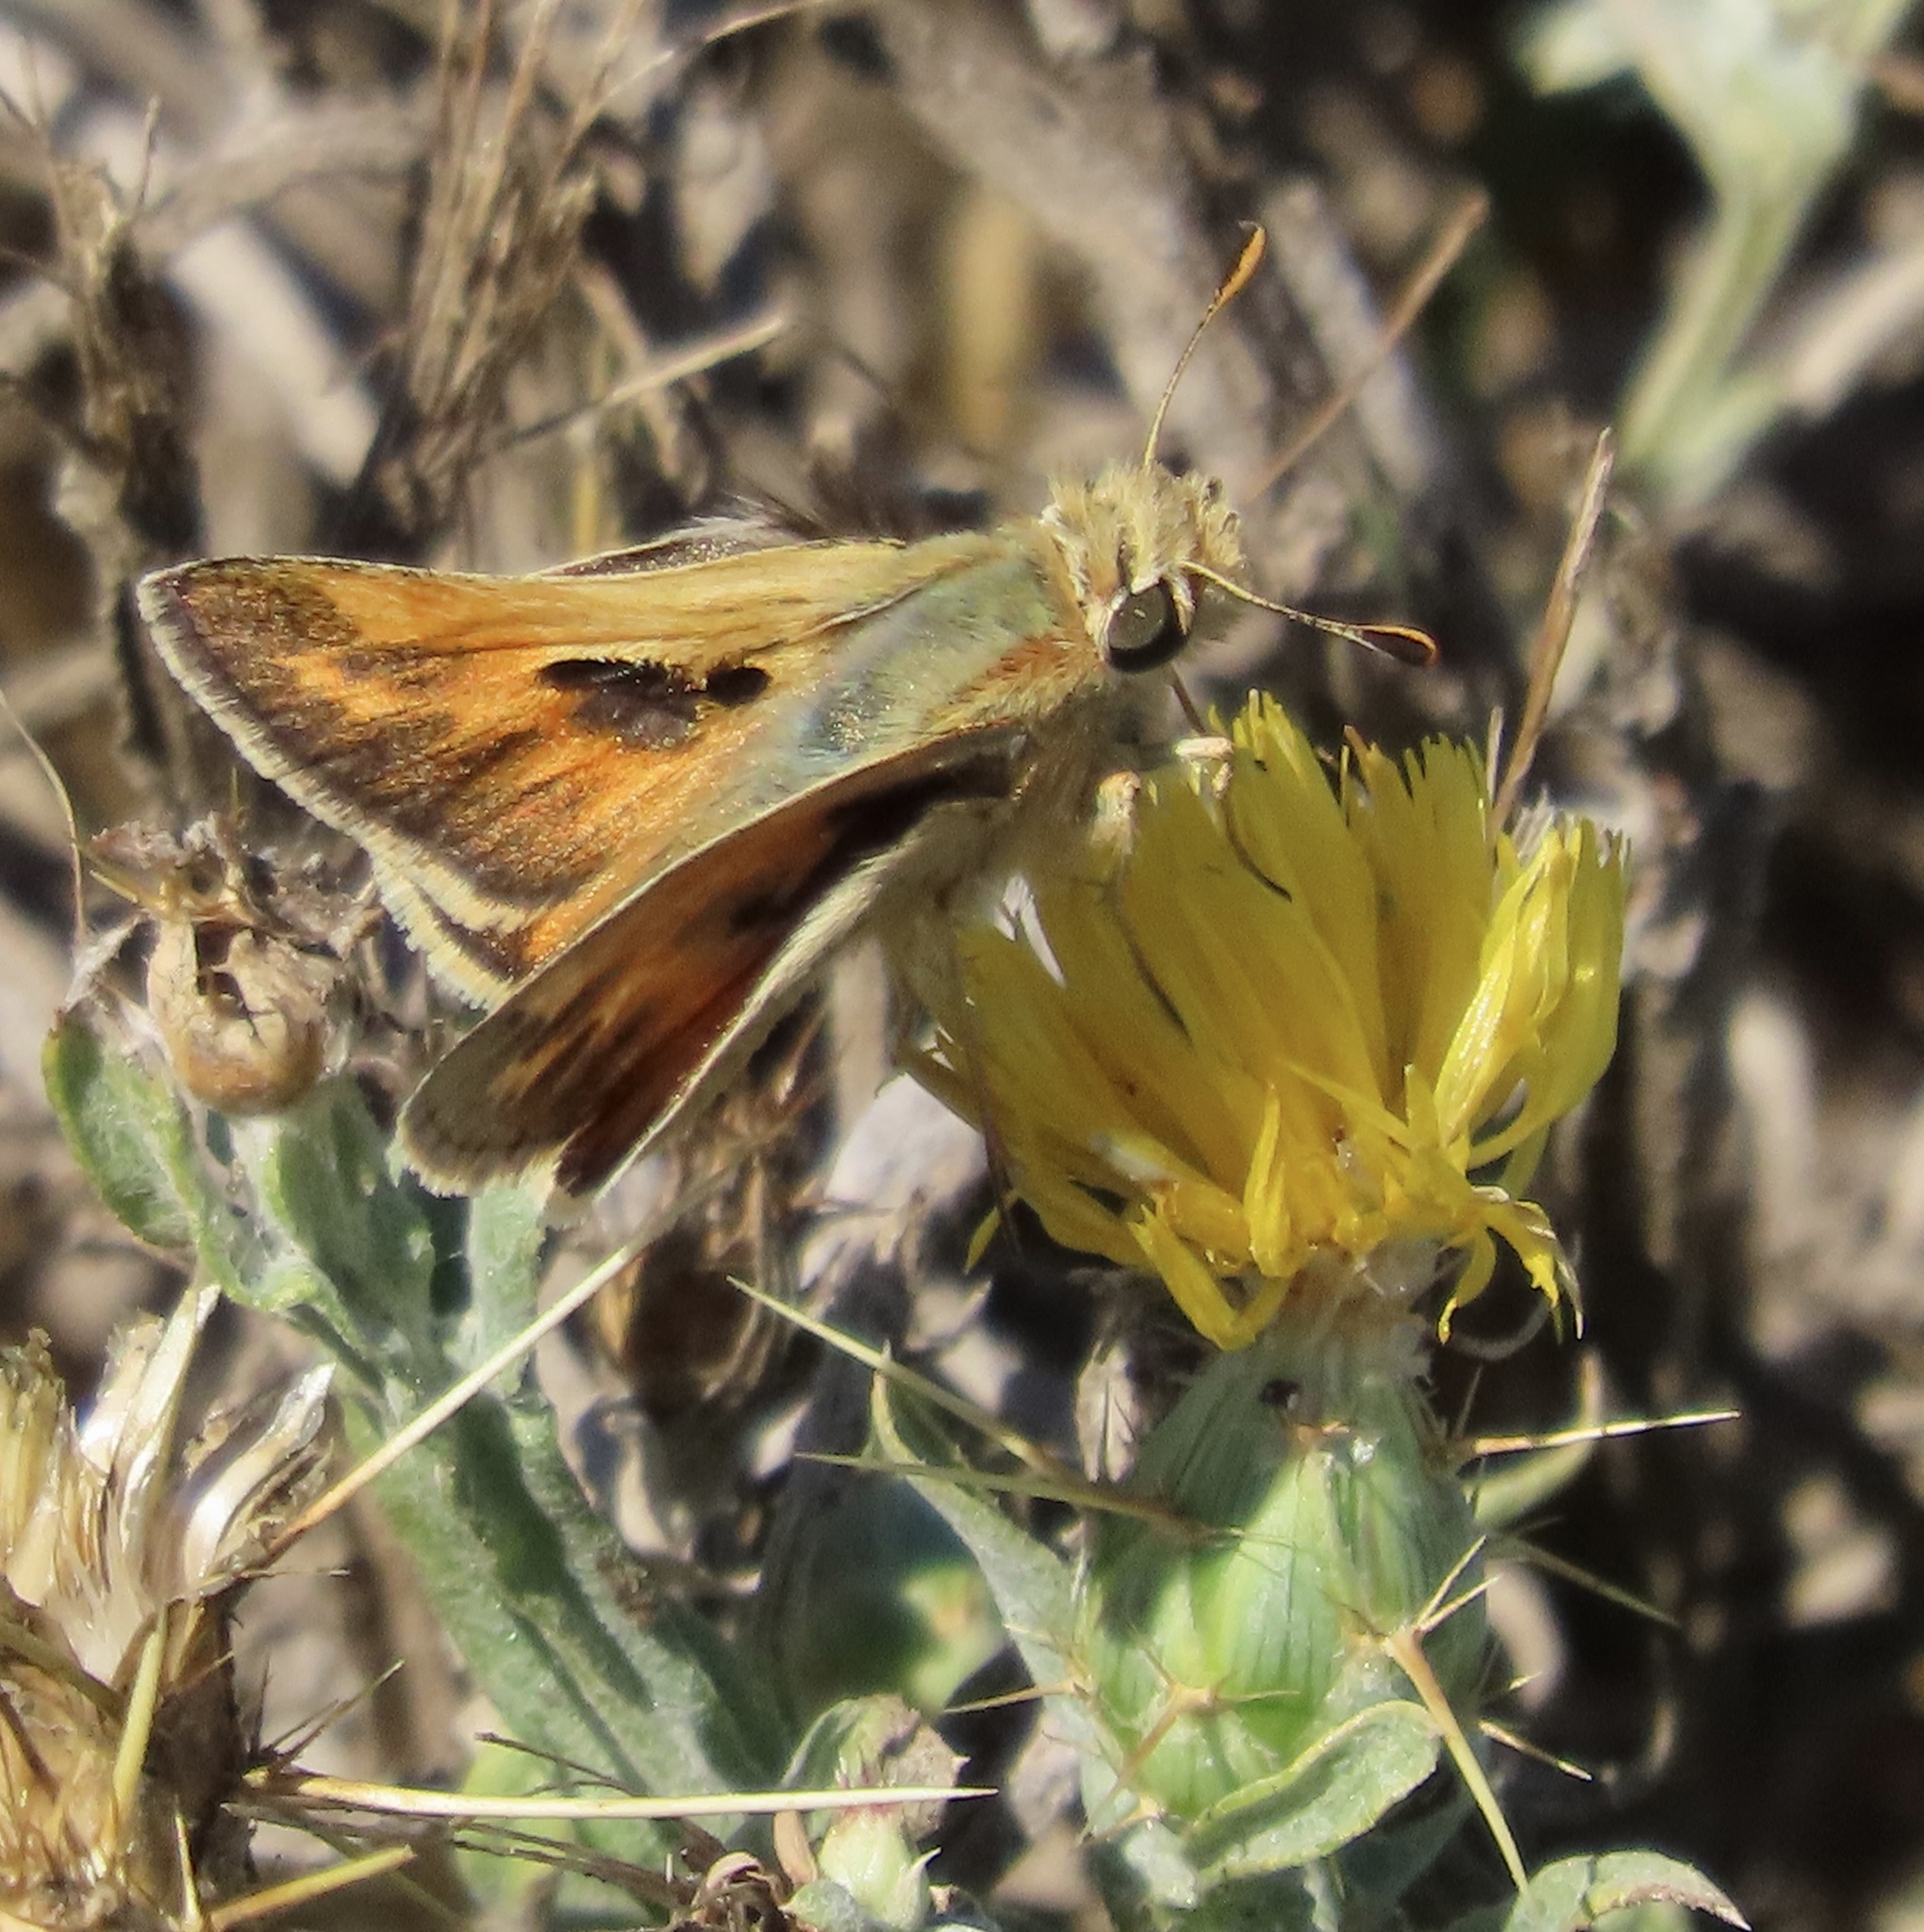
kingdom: Animalia
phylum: Arthropoda
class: Insecta
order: Lepidoptera
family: Hesperiidae
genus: Polites
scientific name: Polites sabuleti
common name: Sandhill skipper
